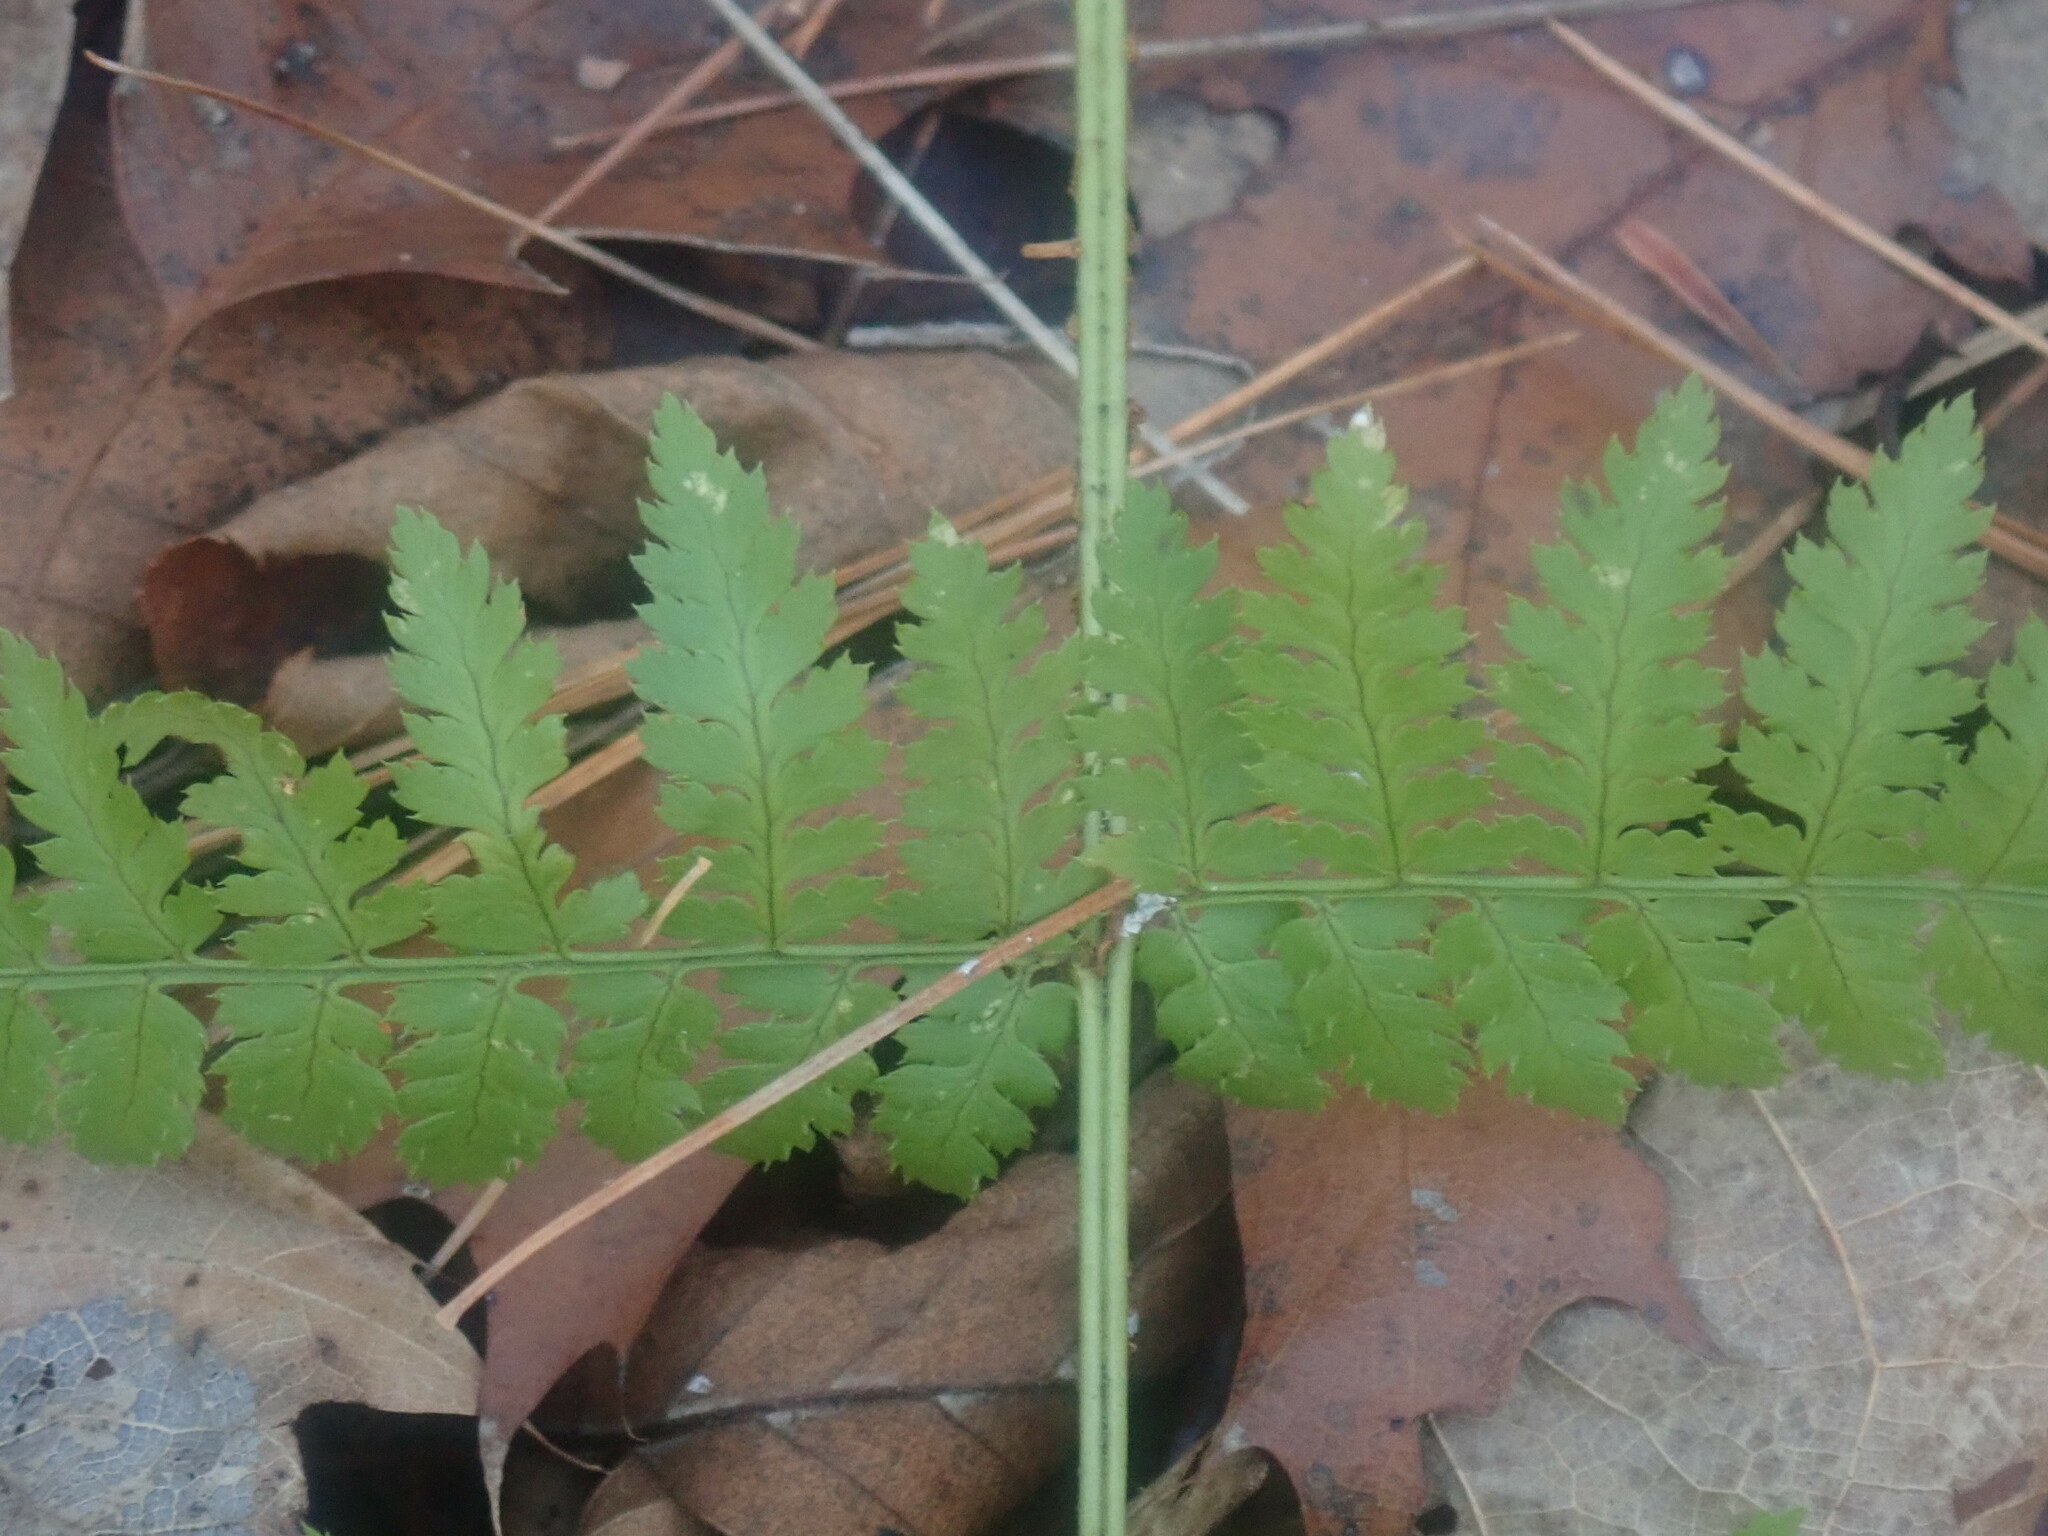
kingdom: Plantae
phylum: Tracheophyta
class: Polypodiopsida
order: Polypodiales
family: Dryopteridaceae
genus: Dryopteris
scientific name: Dryopteris intermedia
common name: Evergreen wood fern
